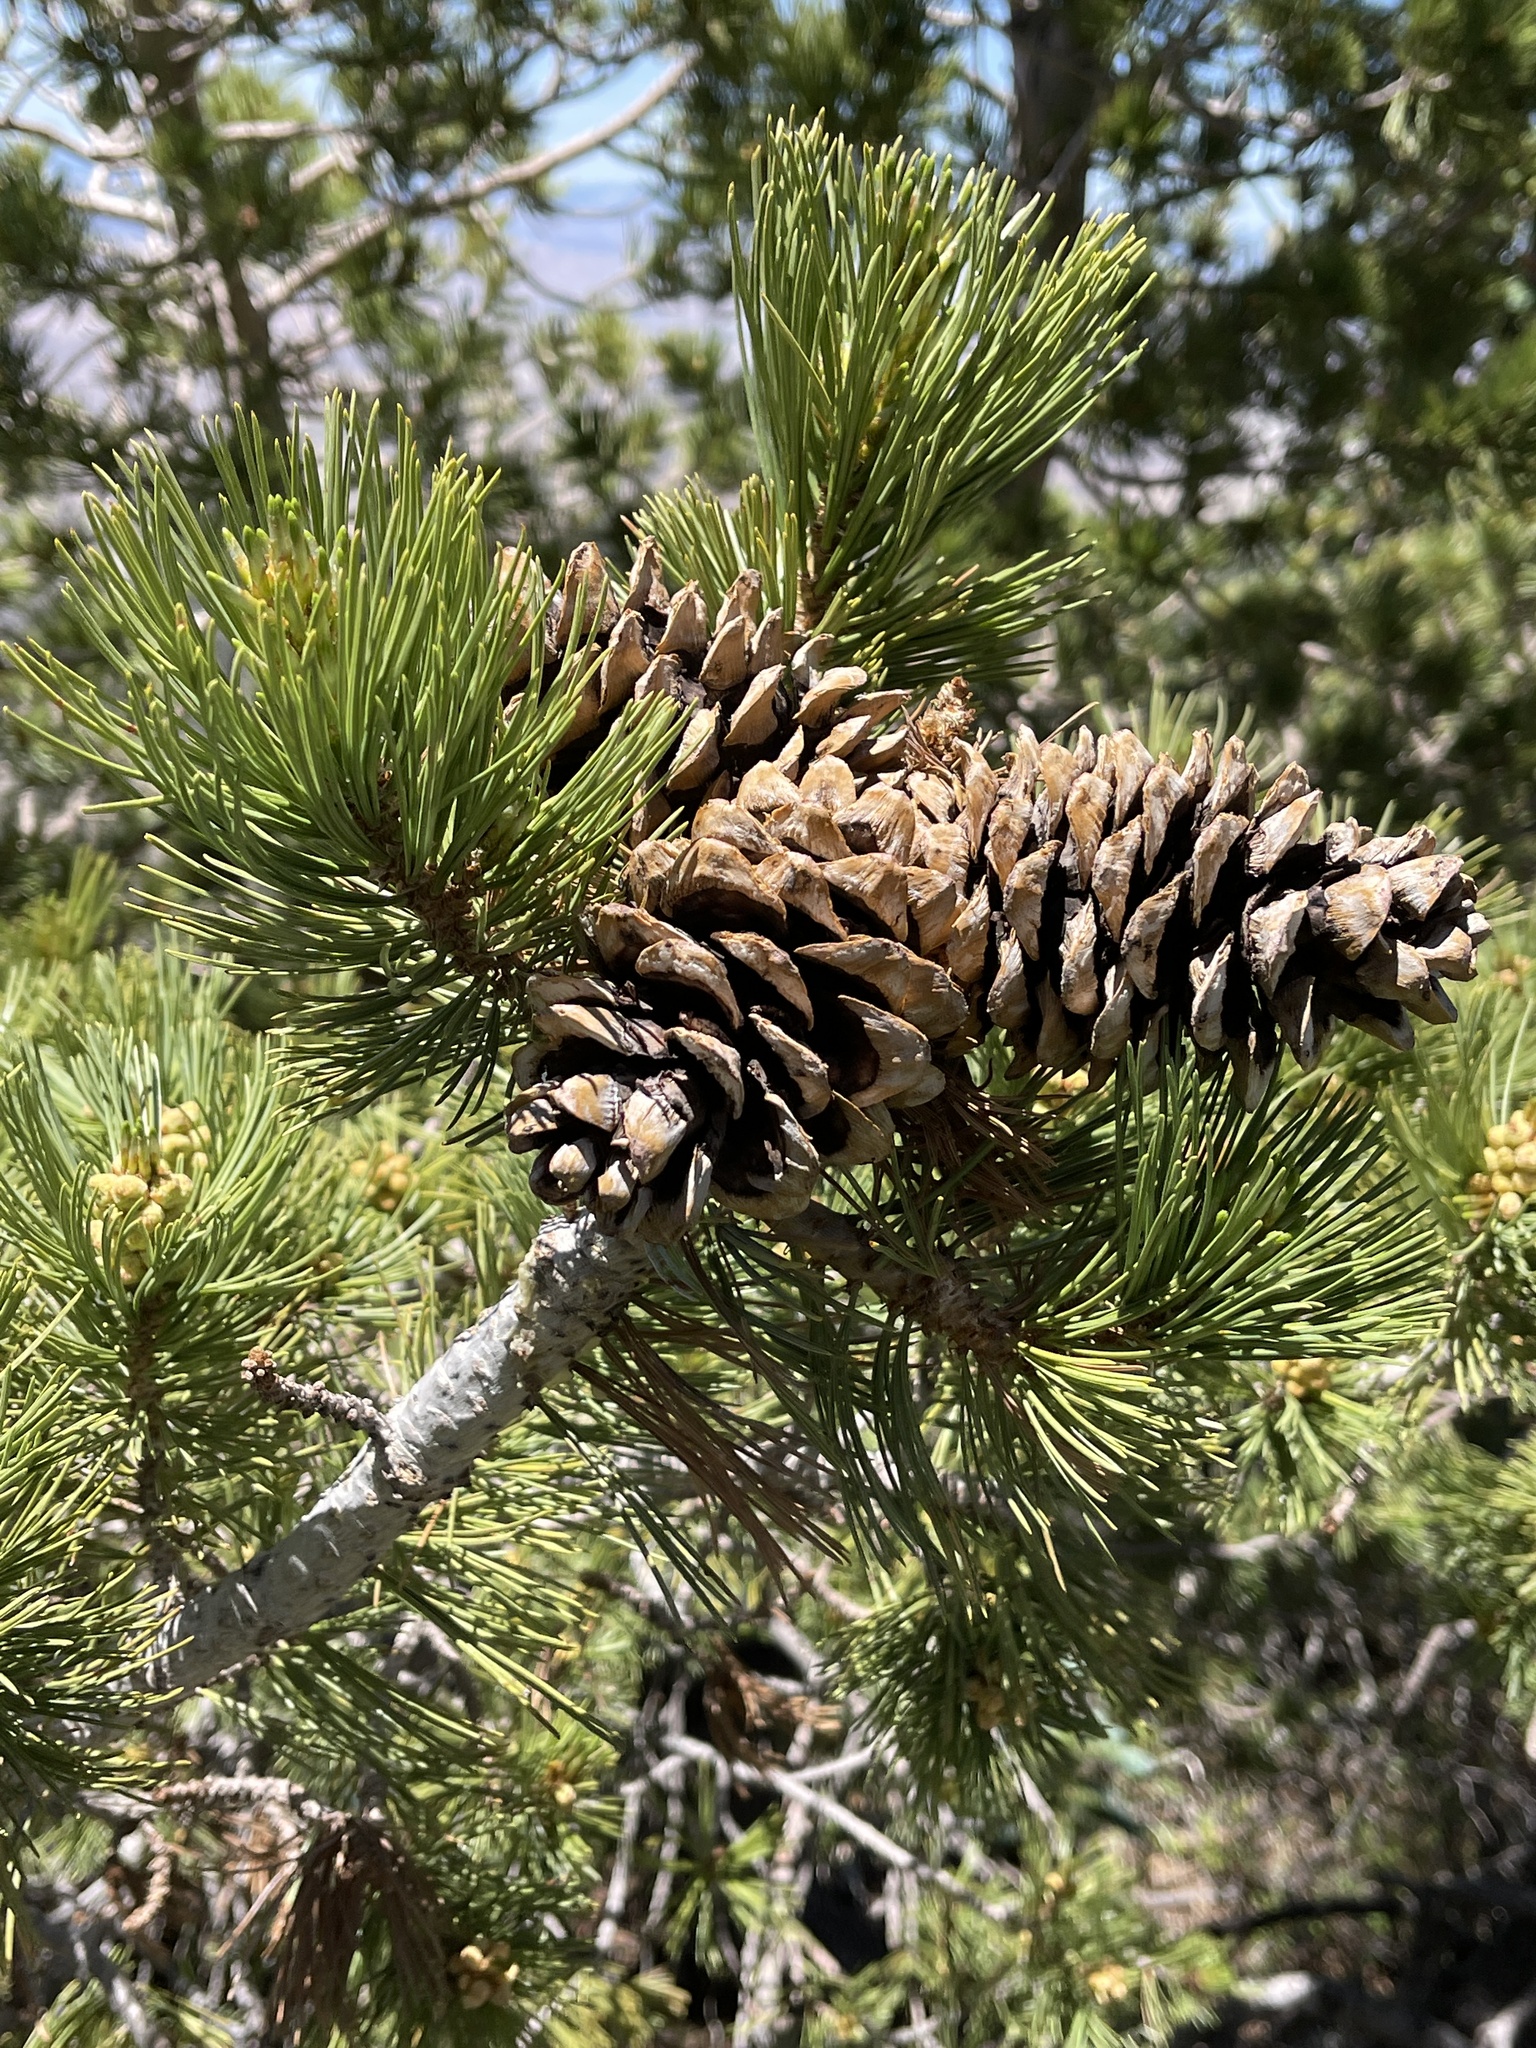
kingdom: Plantae
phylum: Tracheophyta
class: Pinopsida
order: Pinales
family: Pinaceae
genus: Pinus
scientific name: Pinus flexilis
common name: Limber pine
